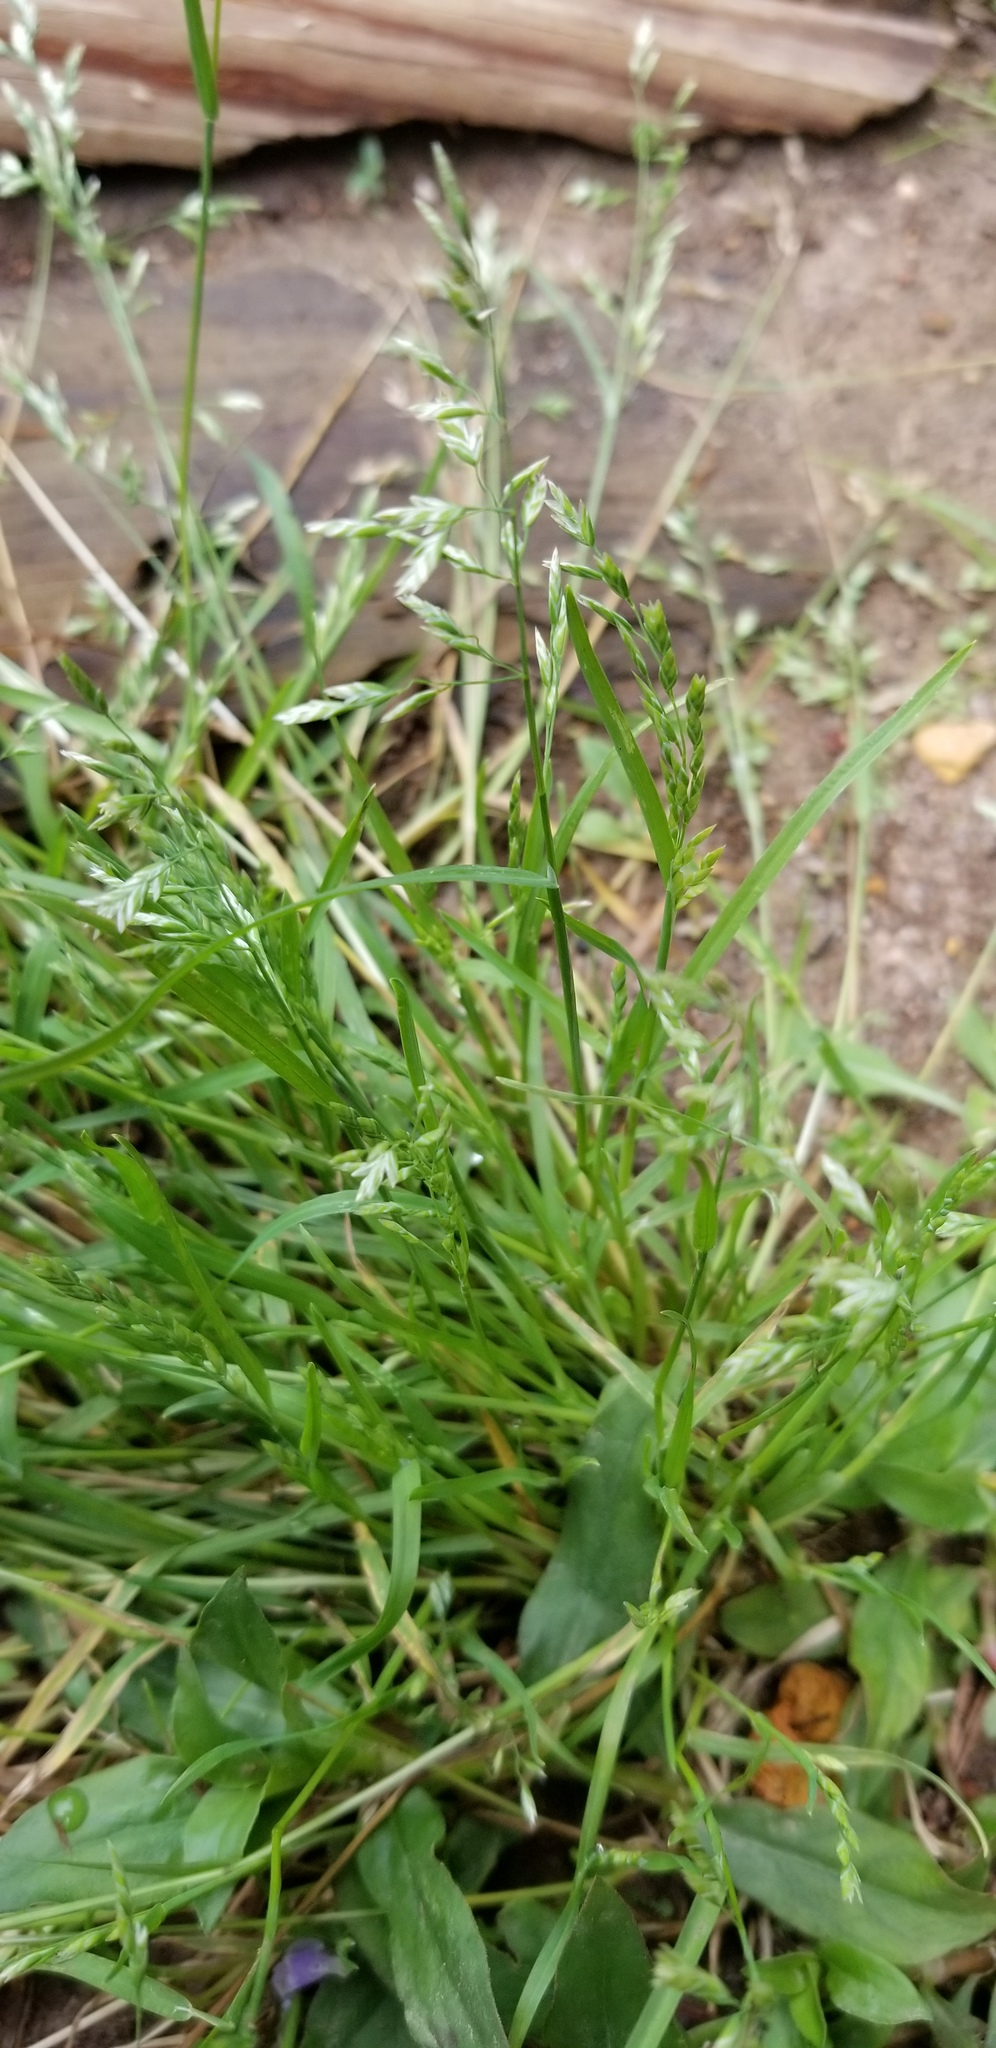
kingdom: Plantae
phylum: Tracheophyta
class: Liliopsida
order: Poales
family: Poaceae
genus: Poa
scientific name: Poa annua
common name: Annual bluegrass
